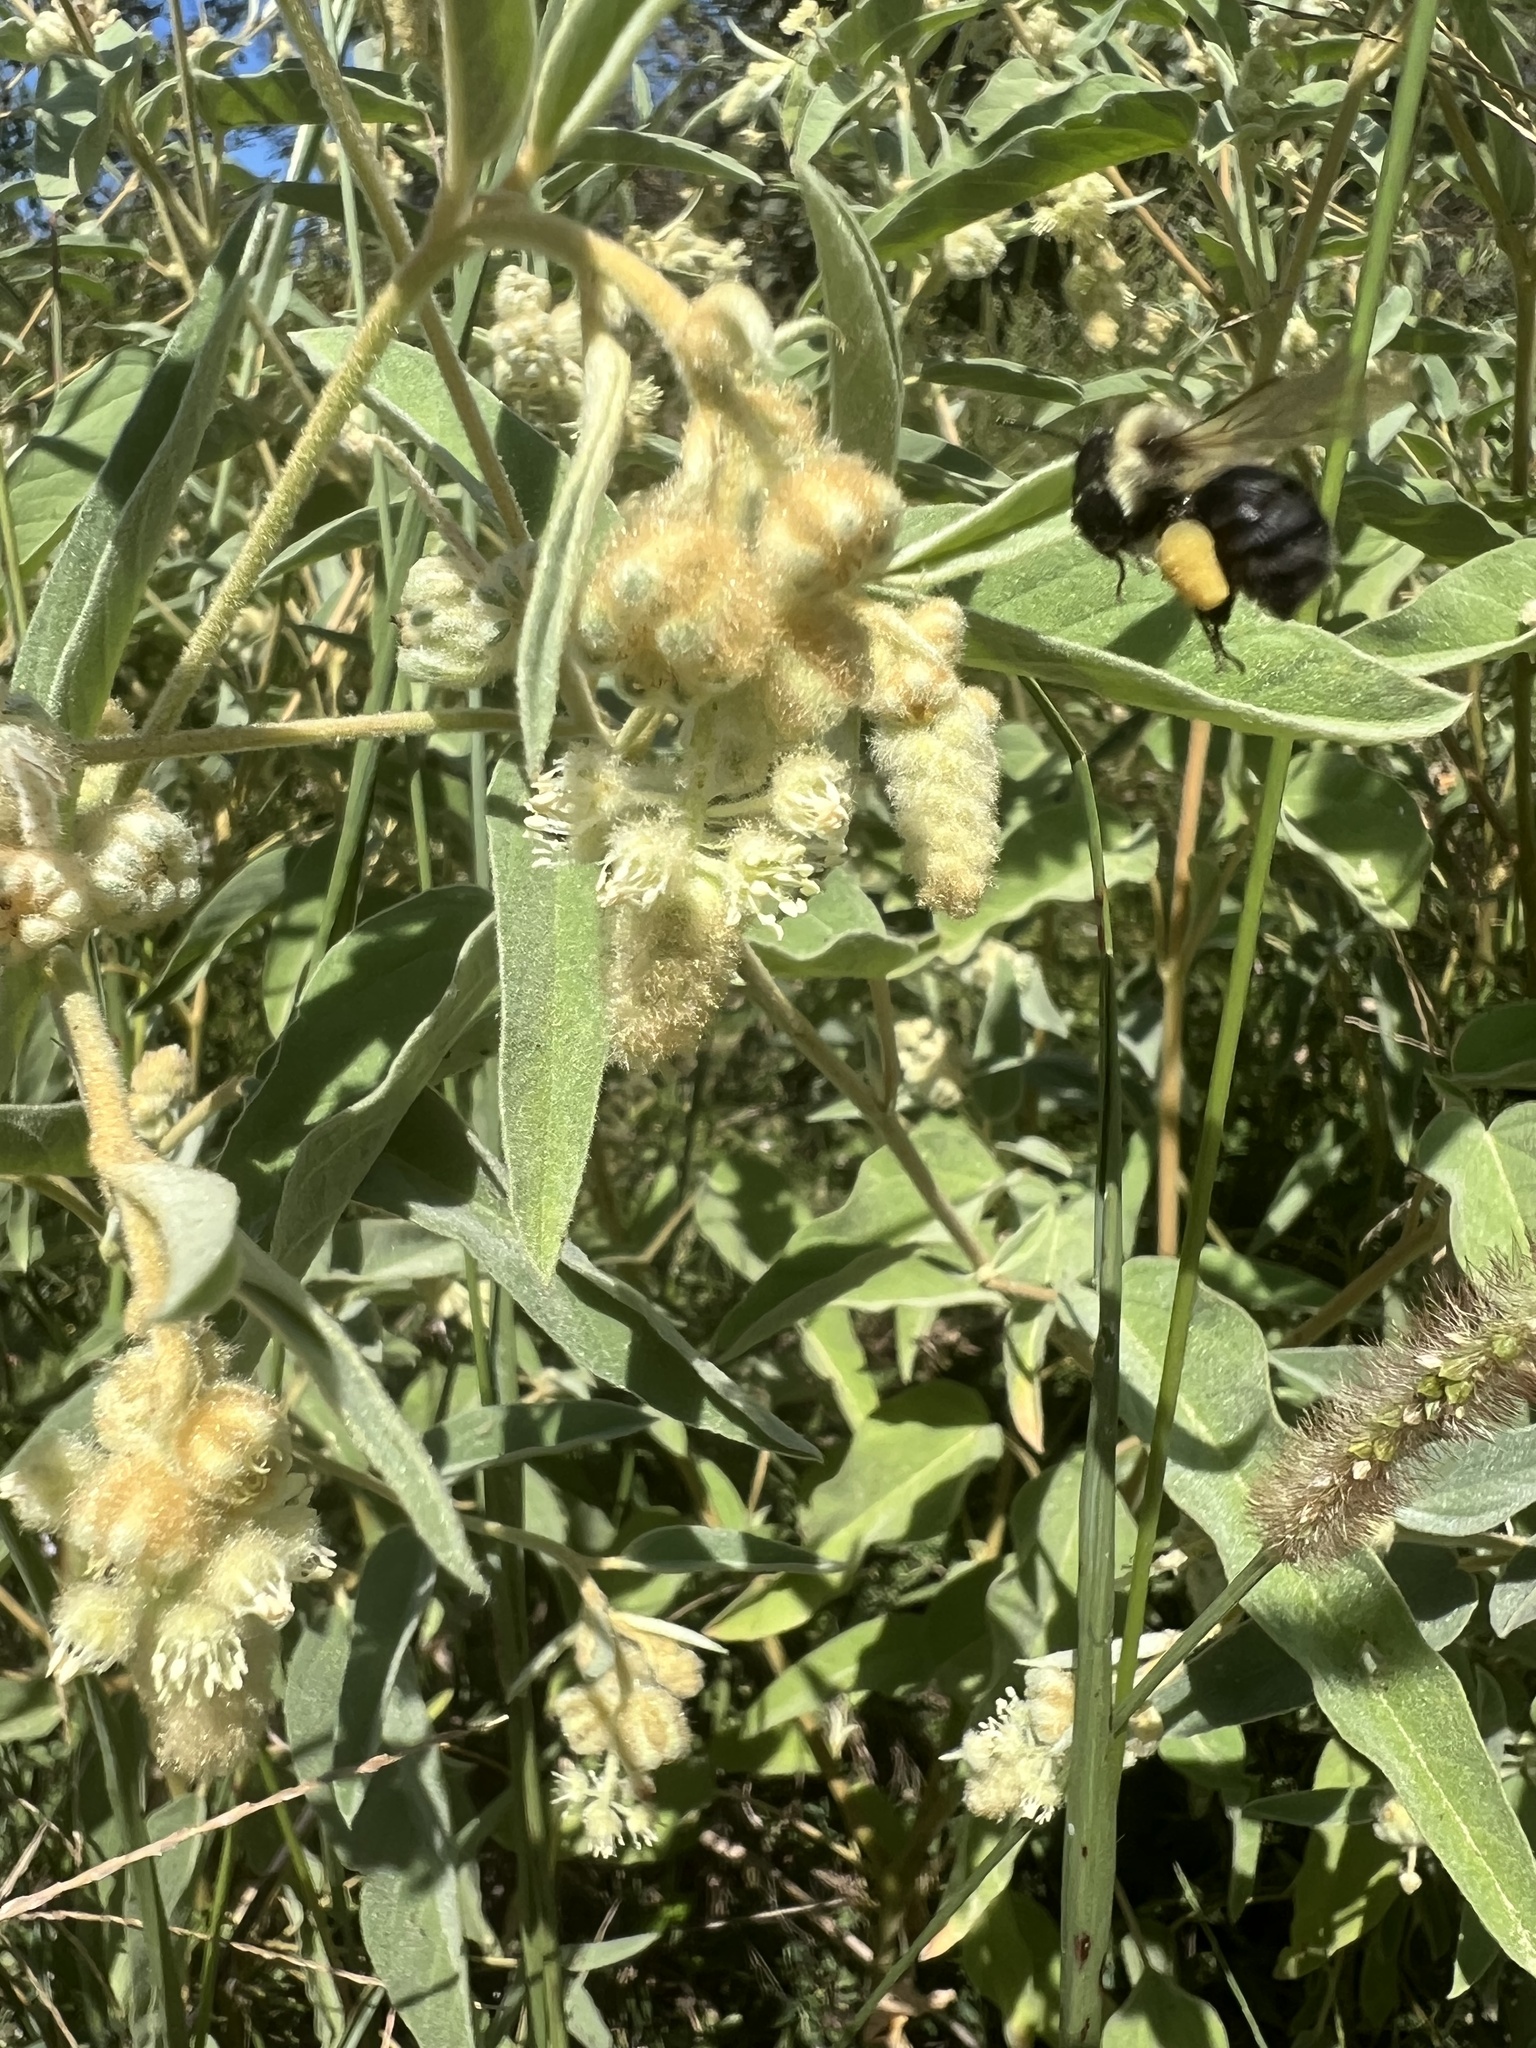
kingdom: Animalia
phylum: Arthropoda
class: Insecta
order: Hymenoptera
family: Apidae
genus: Bombus
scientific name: Bombus impatiens
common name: Common eastern bumble bee
